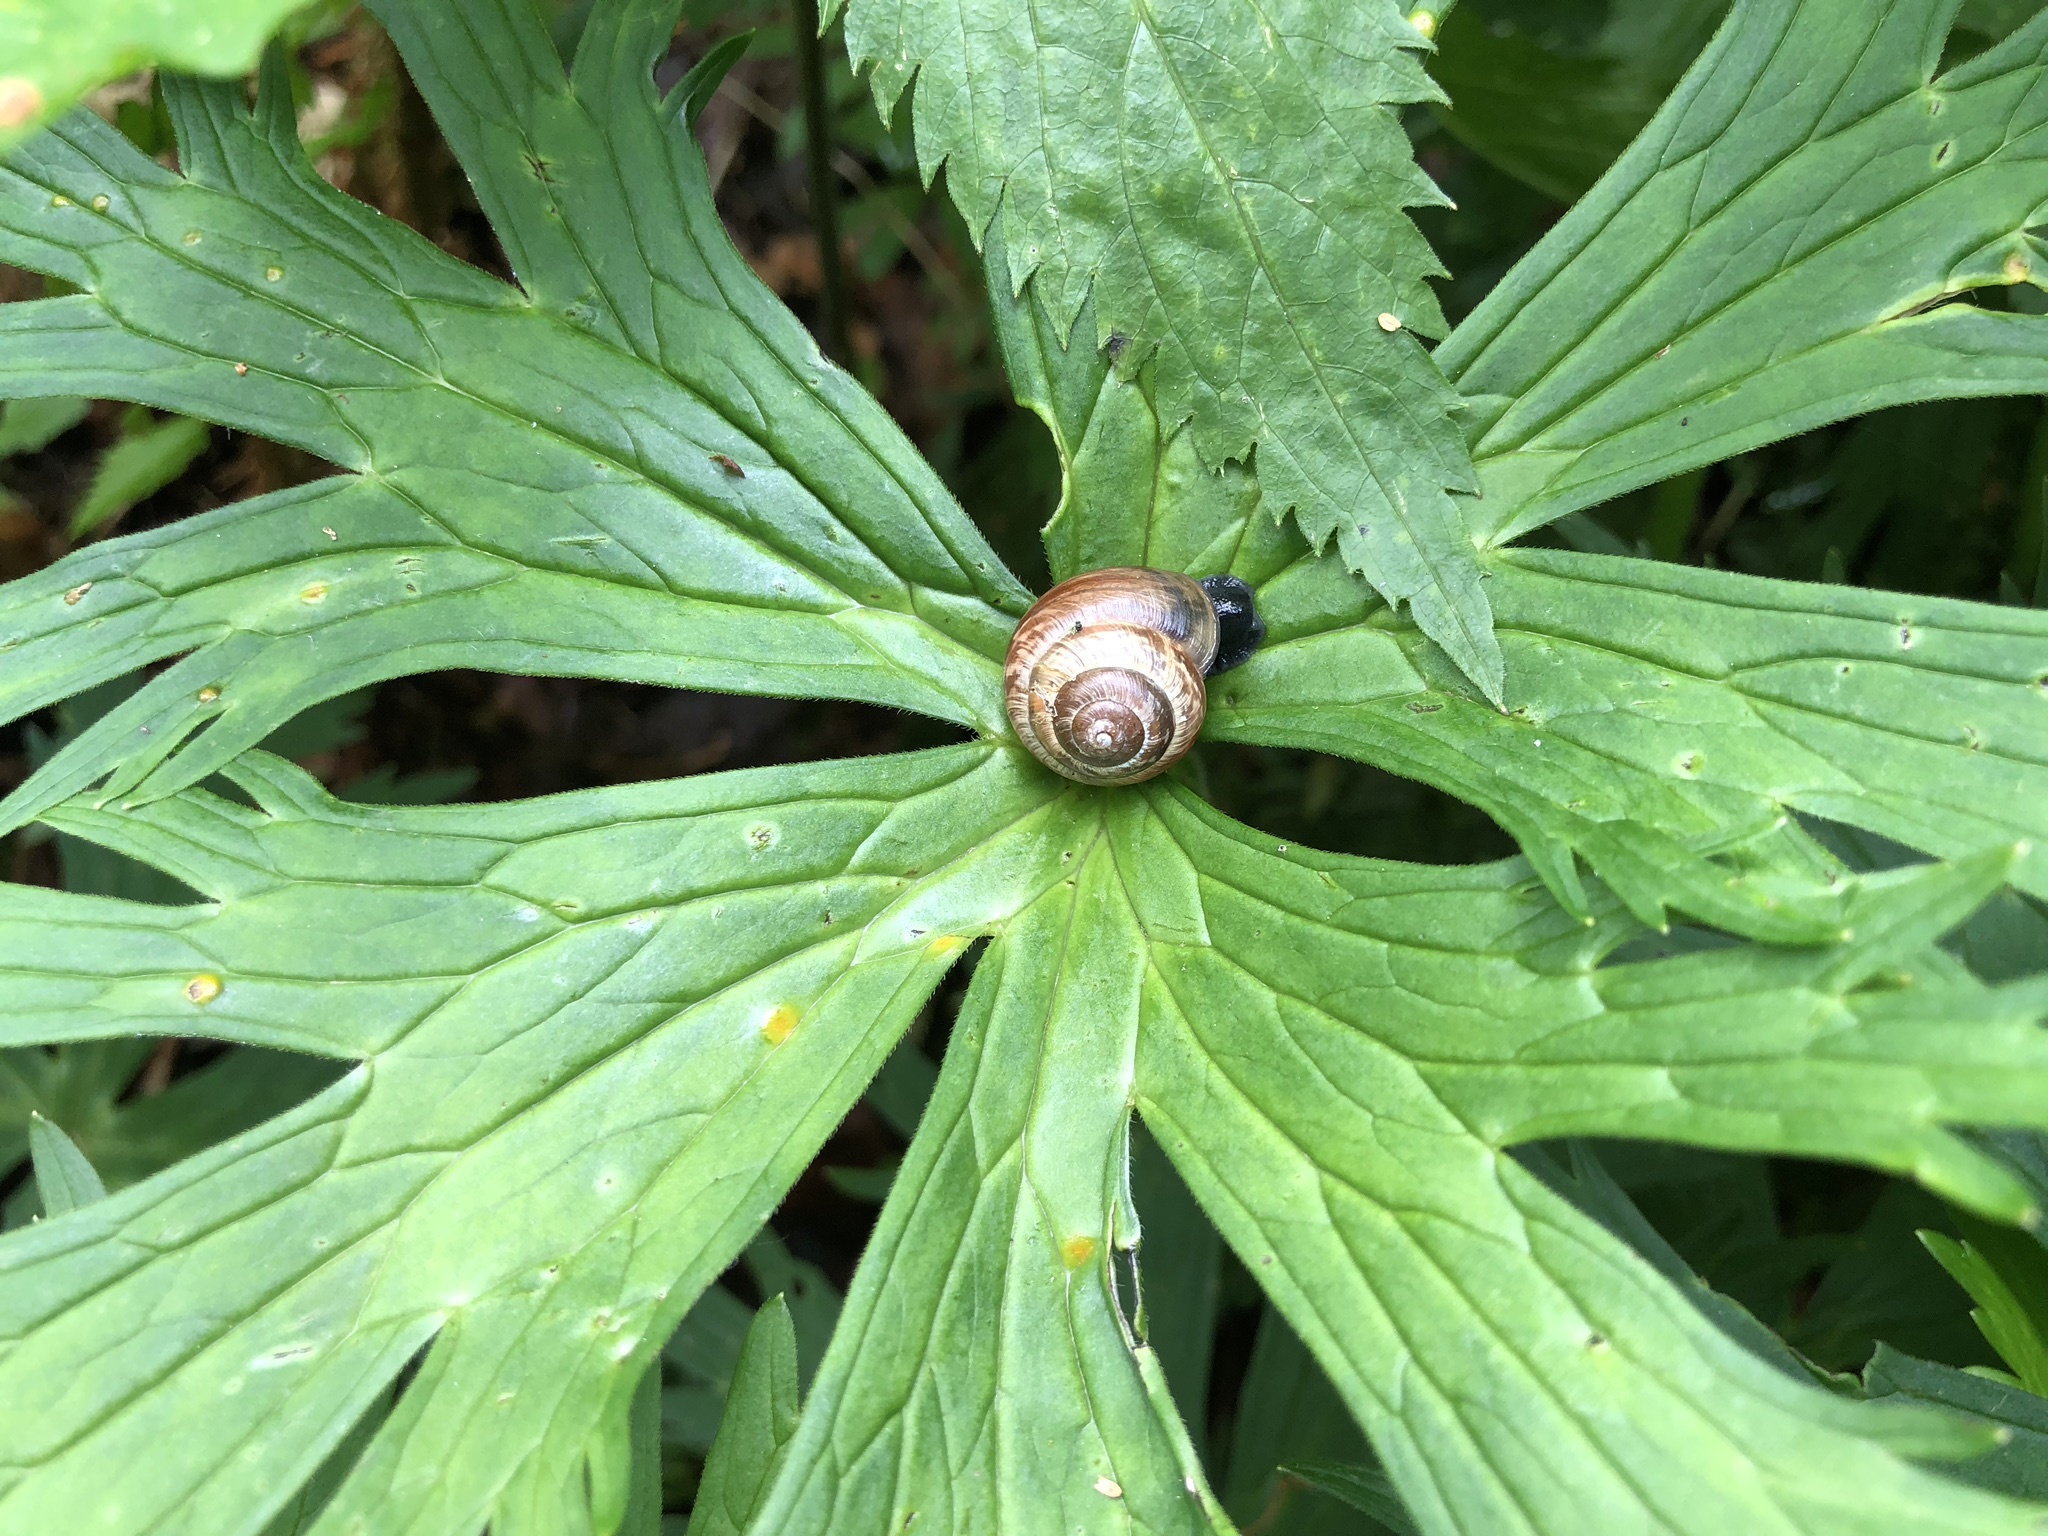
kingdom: Animalia
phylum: Mollusca
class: Gastropoda
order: Stylommatophora
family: Helicidae
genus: Arianta
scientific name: Arianta arbustorum
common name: Copse snail
